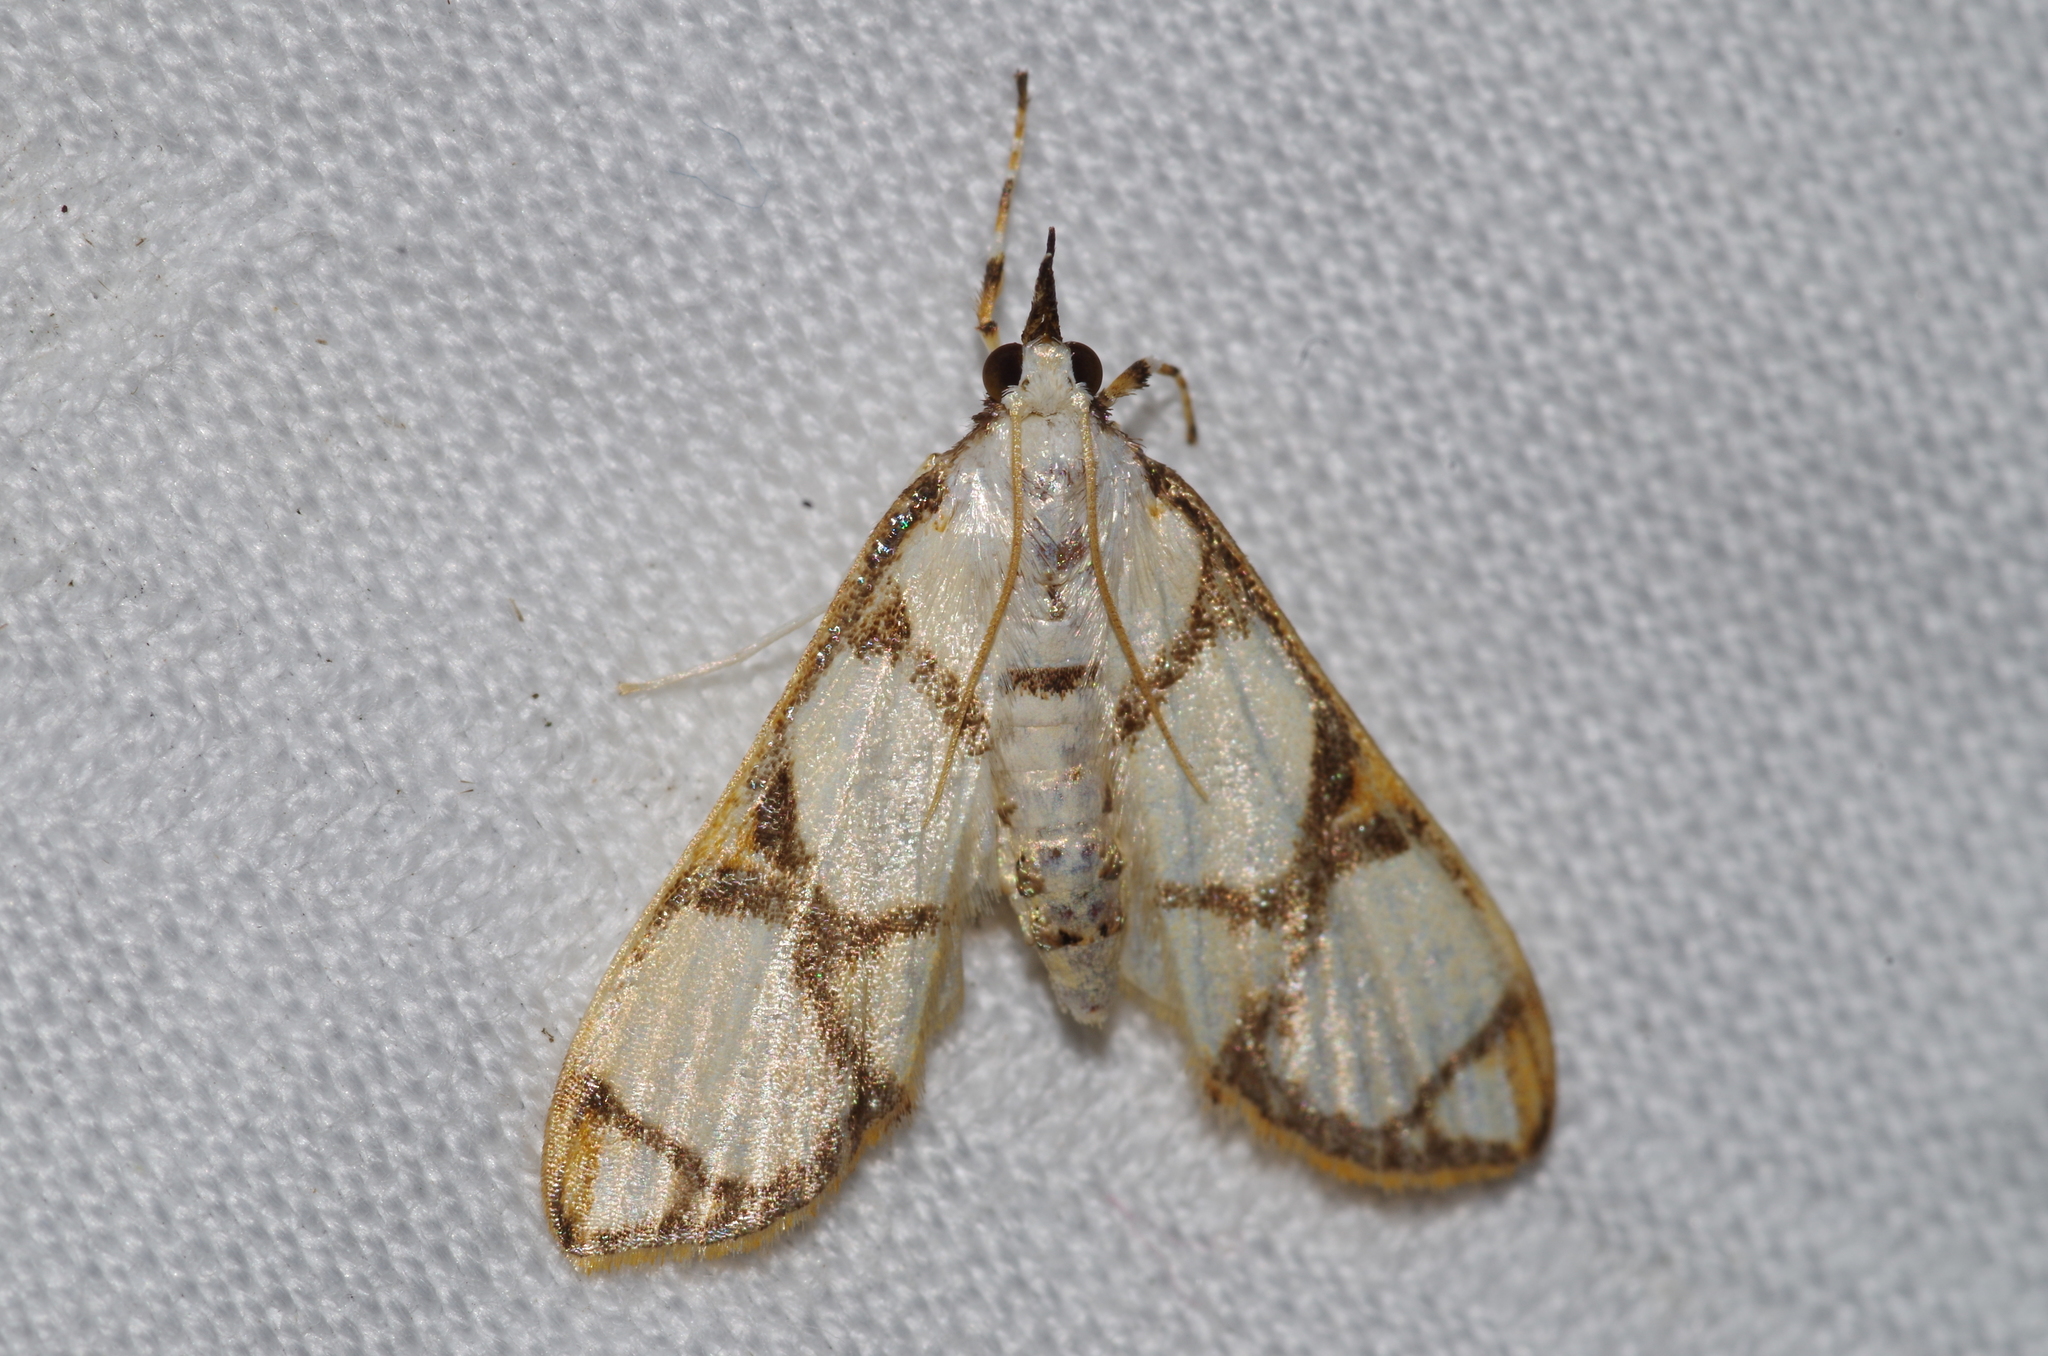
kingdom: Animalia
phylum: Arthropoda
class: Insecta
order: Lepidoptera
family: Crambidae
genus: Cirrhochrista
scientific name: Cirrhochrista kosemponialis
